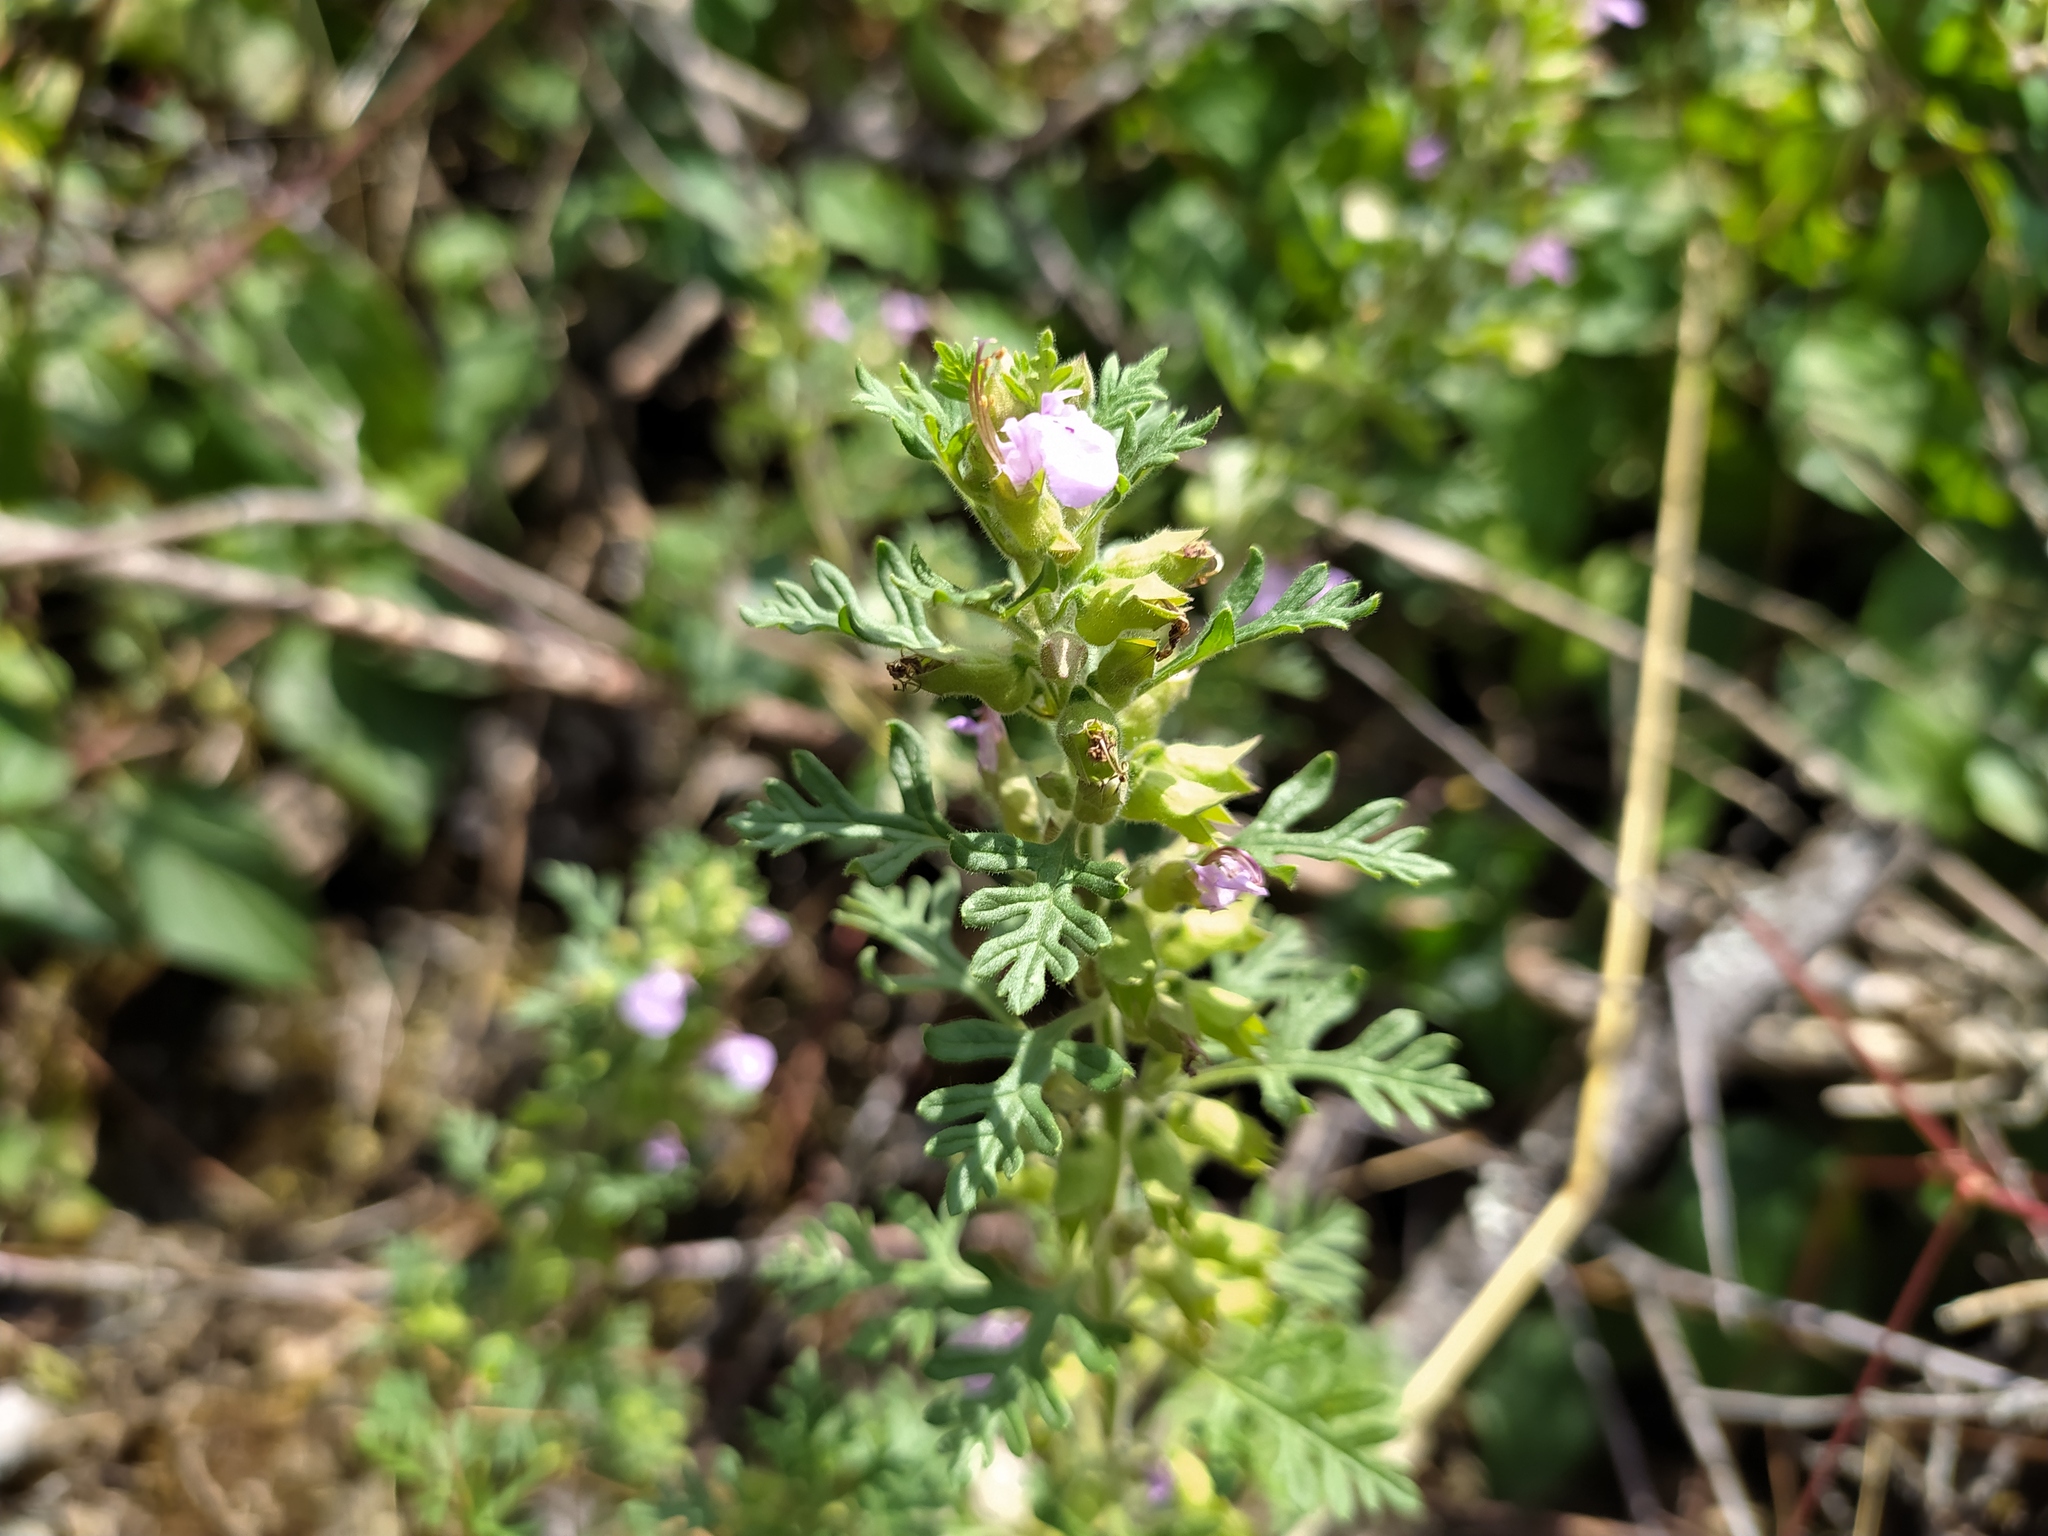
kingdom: Plantae
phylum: Tracheophyta
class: Magnoliopsida
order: Lamiales
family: Lamiaceae
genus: Teucrium
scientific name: Teucrium botrys
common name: Cut-leaved germander
